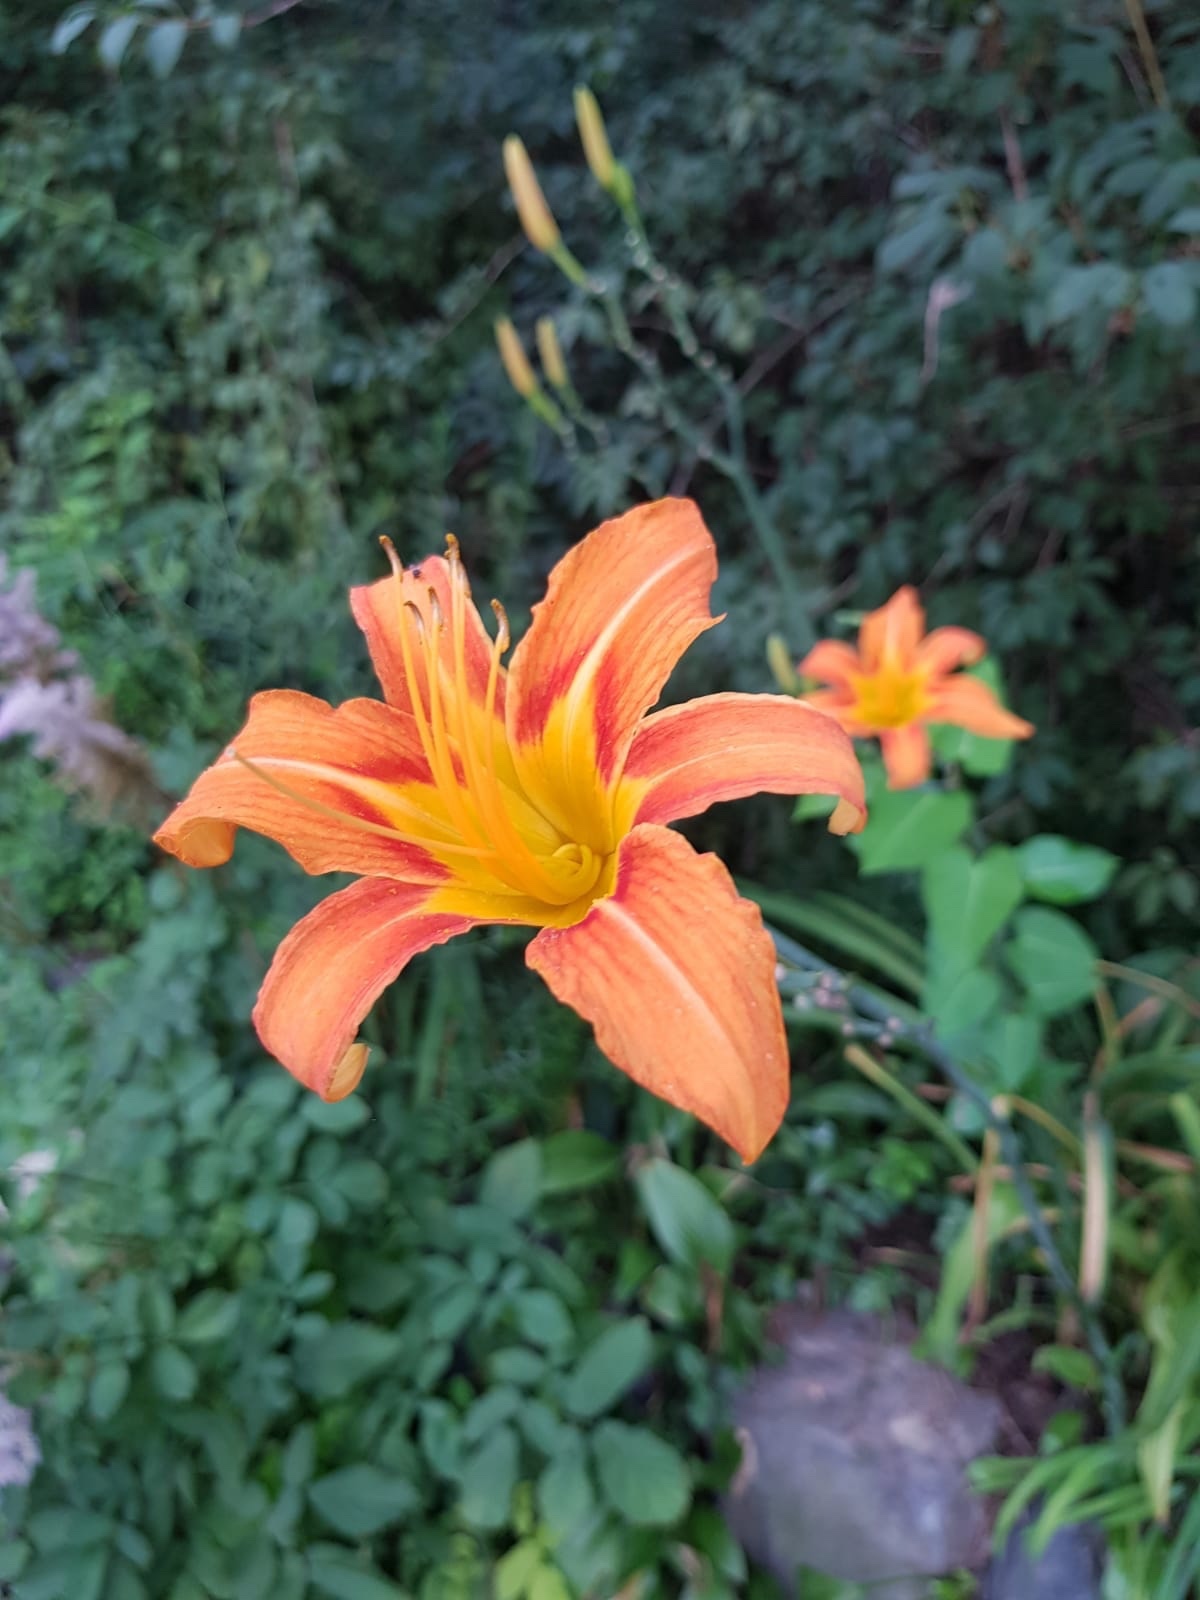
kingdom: Plantae
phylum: Tracheophyta
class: Liliopsida
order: Asparagales
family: Asphodelaceae
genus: Hemerocallis
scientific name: Hemerocallis fulva
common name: Orange day-lily
